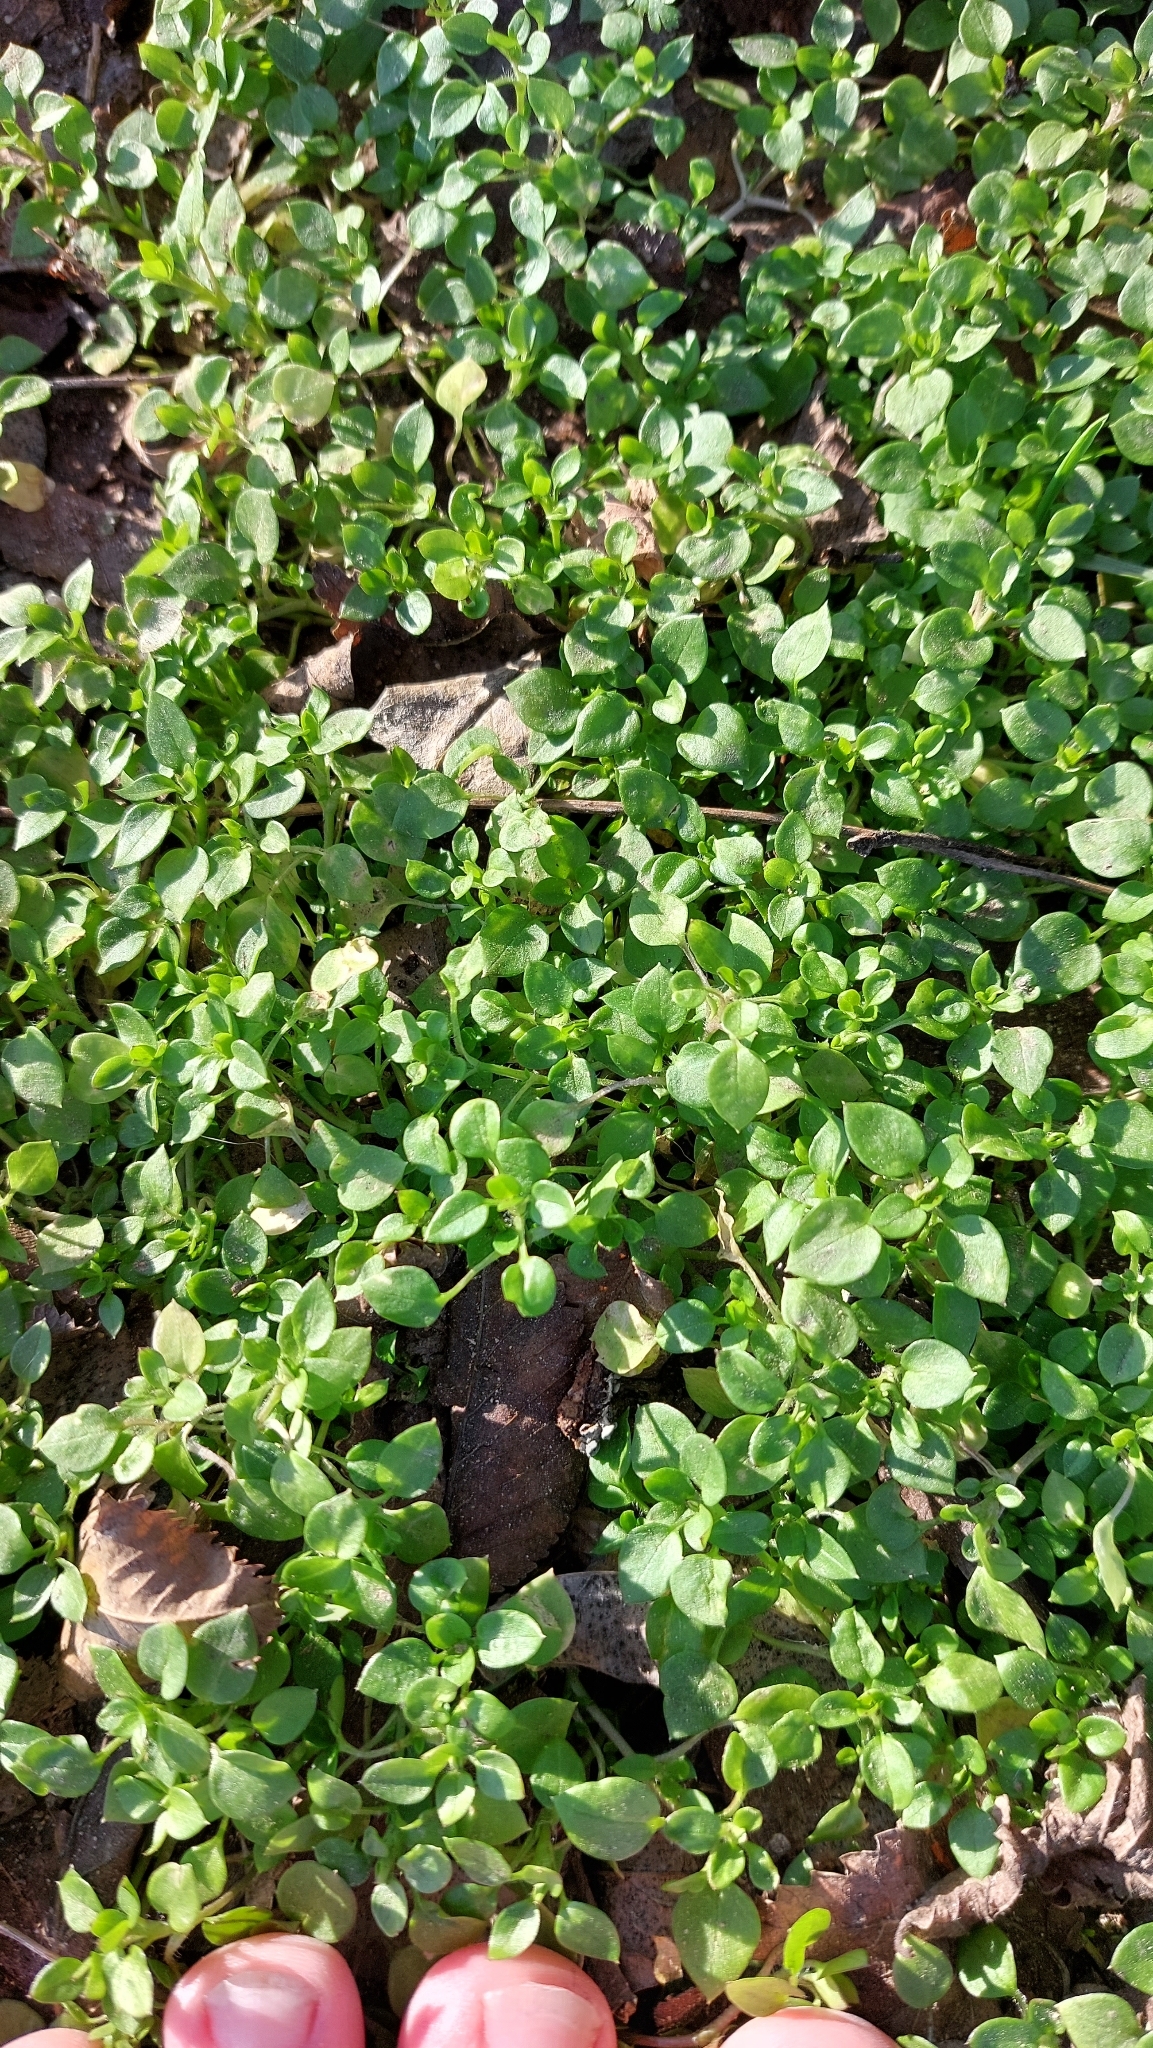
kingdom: Plantae
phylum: Tracheophyta
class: Magnoliopsida
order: Caryophyllales
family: Caryophyllaceae
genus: Stellaria
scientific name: Stellaria
